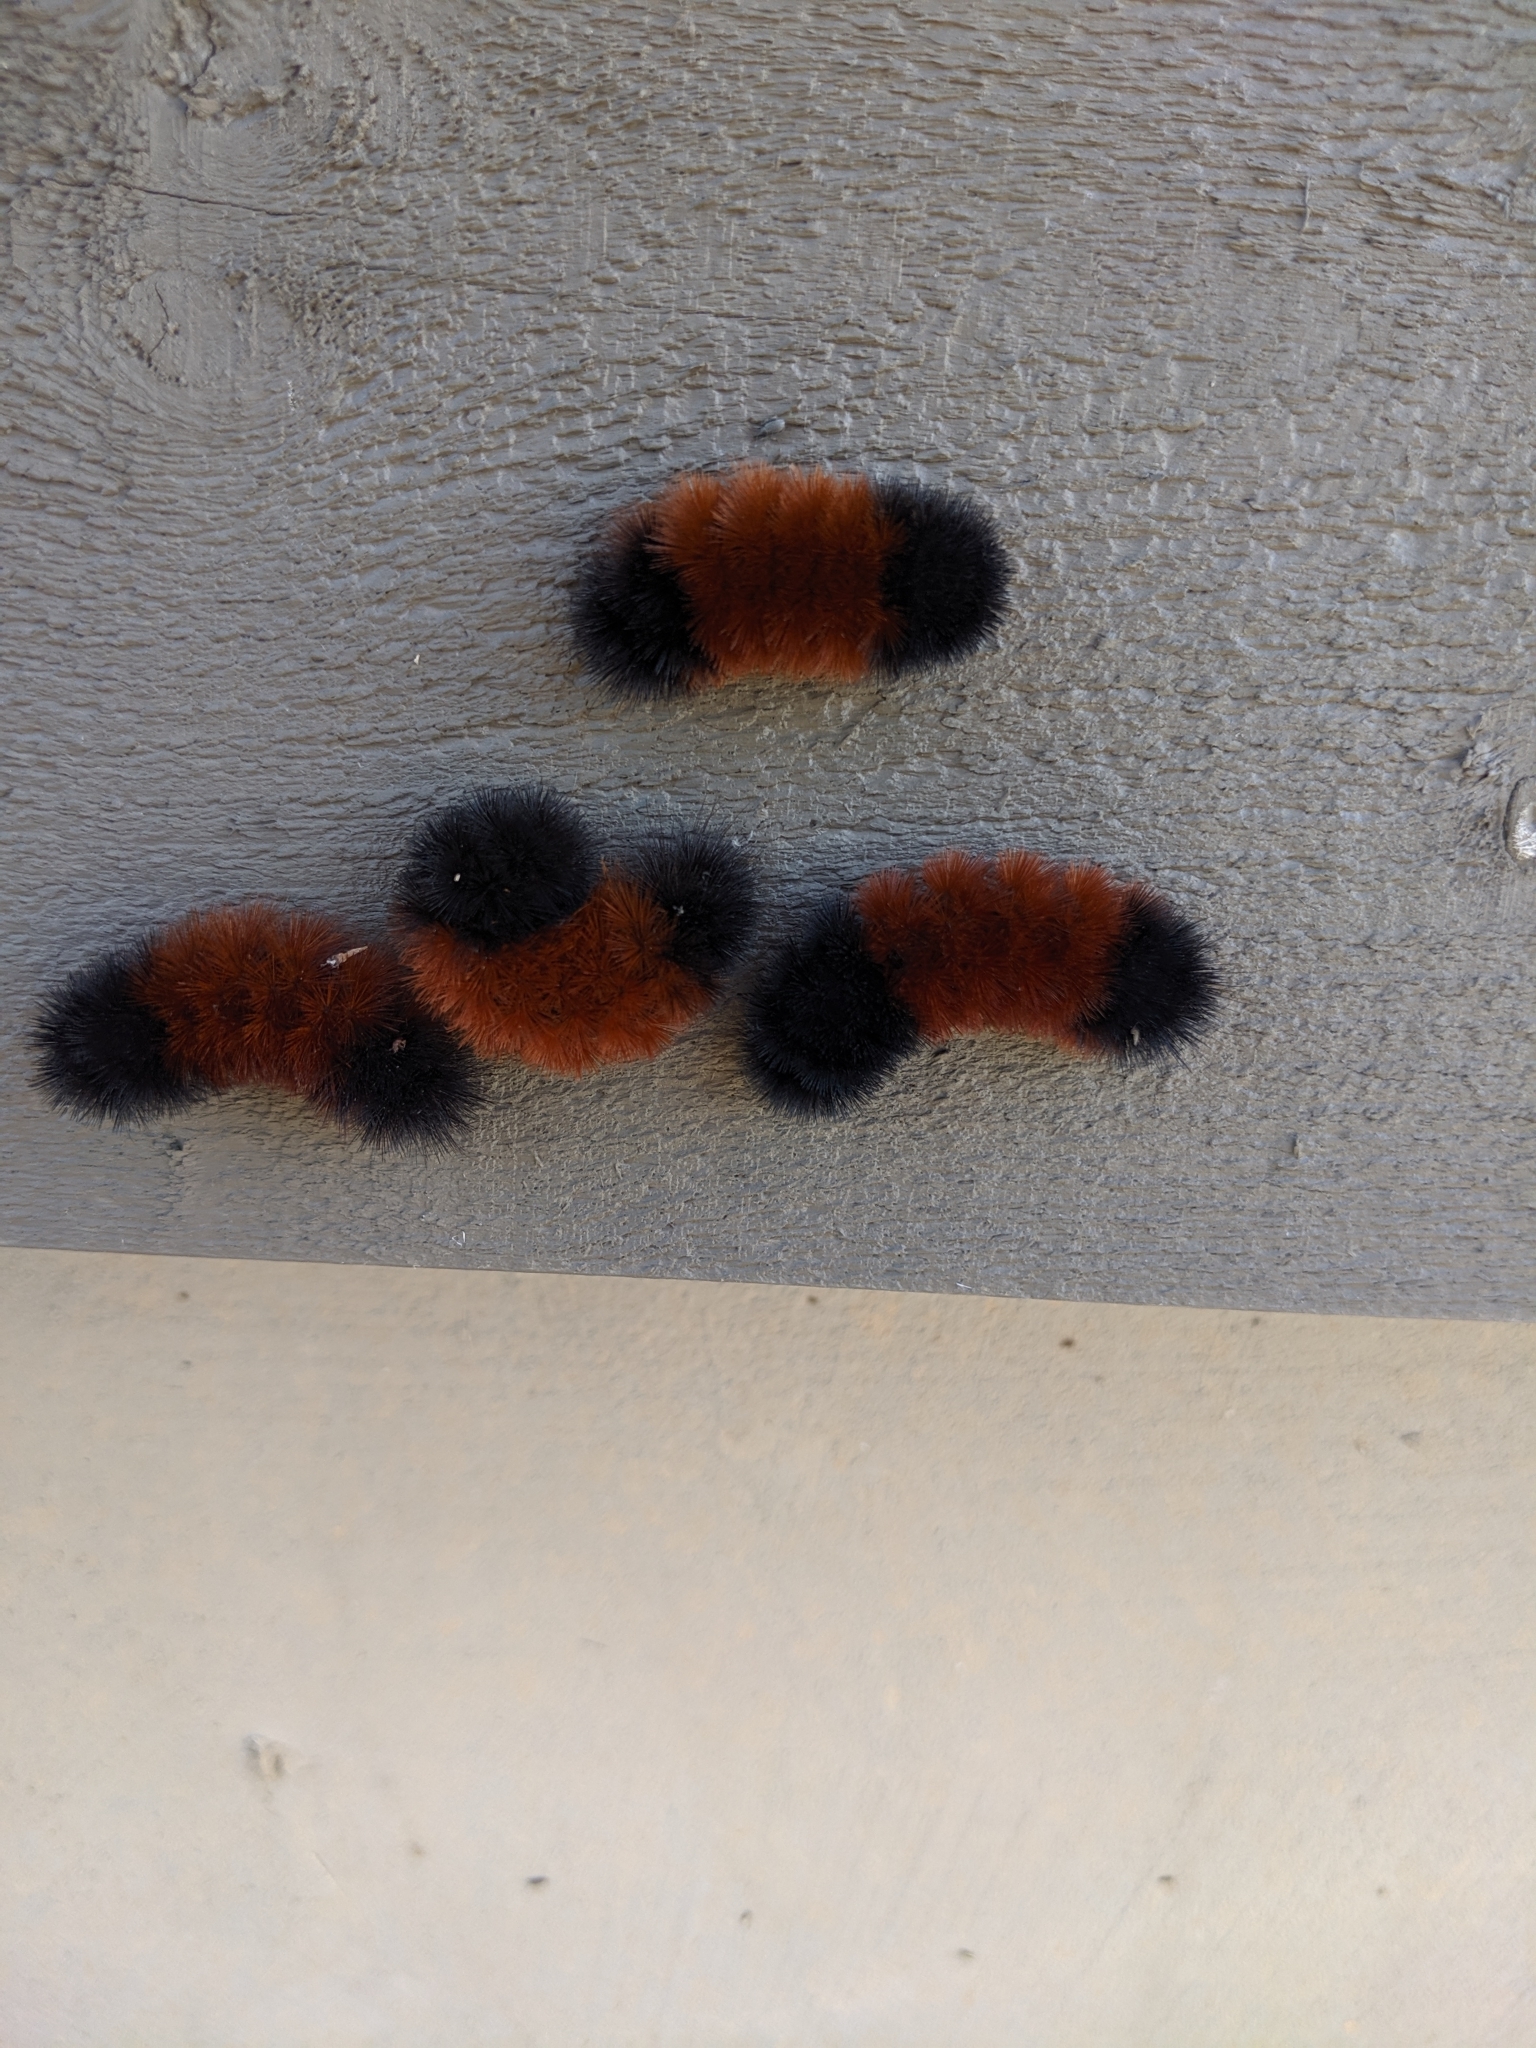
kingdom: Animalia
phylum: Arthropoda
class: Insecta
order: Lepidoptera
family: Erebidae
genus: Pyrrharctia
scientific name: Pyrrharctia isabella
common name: Isabella tiger moth
